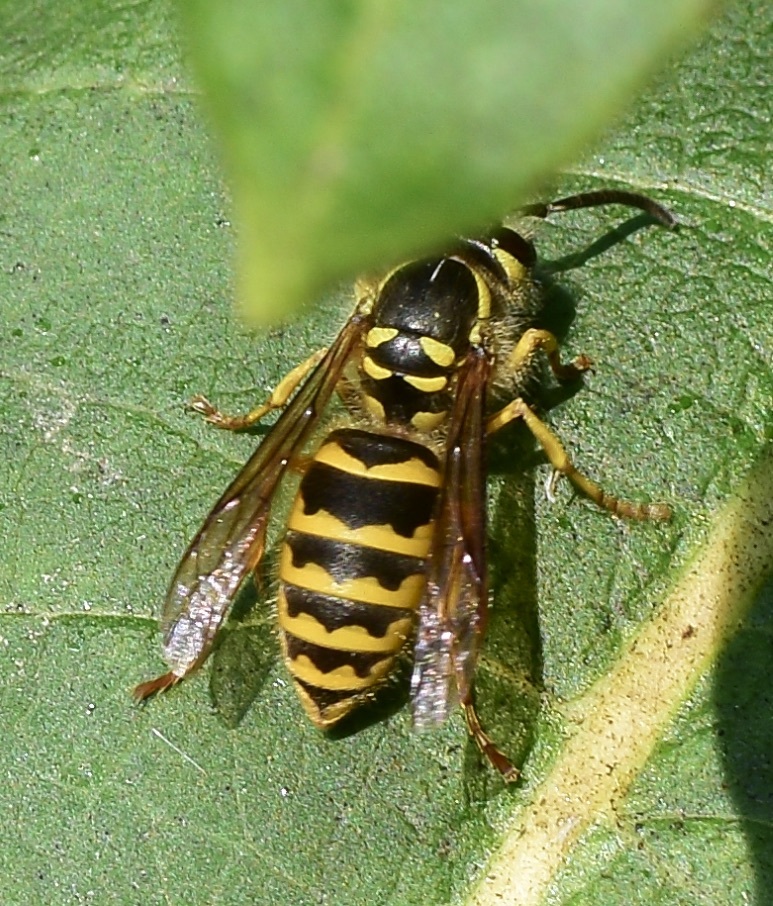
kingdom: Animalia
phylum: Arthropoda
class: Insecta
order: Hymenoptera
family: Vespidae
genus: Vespula
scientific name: Vespula flavopilosa
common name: Downy yellowjacket
